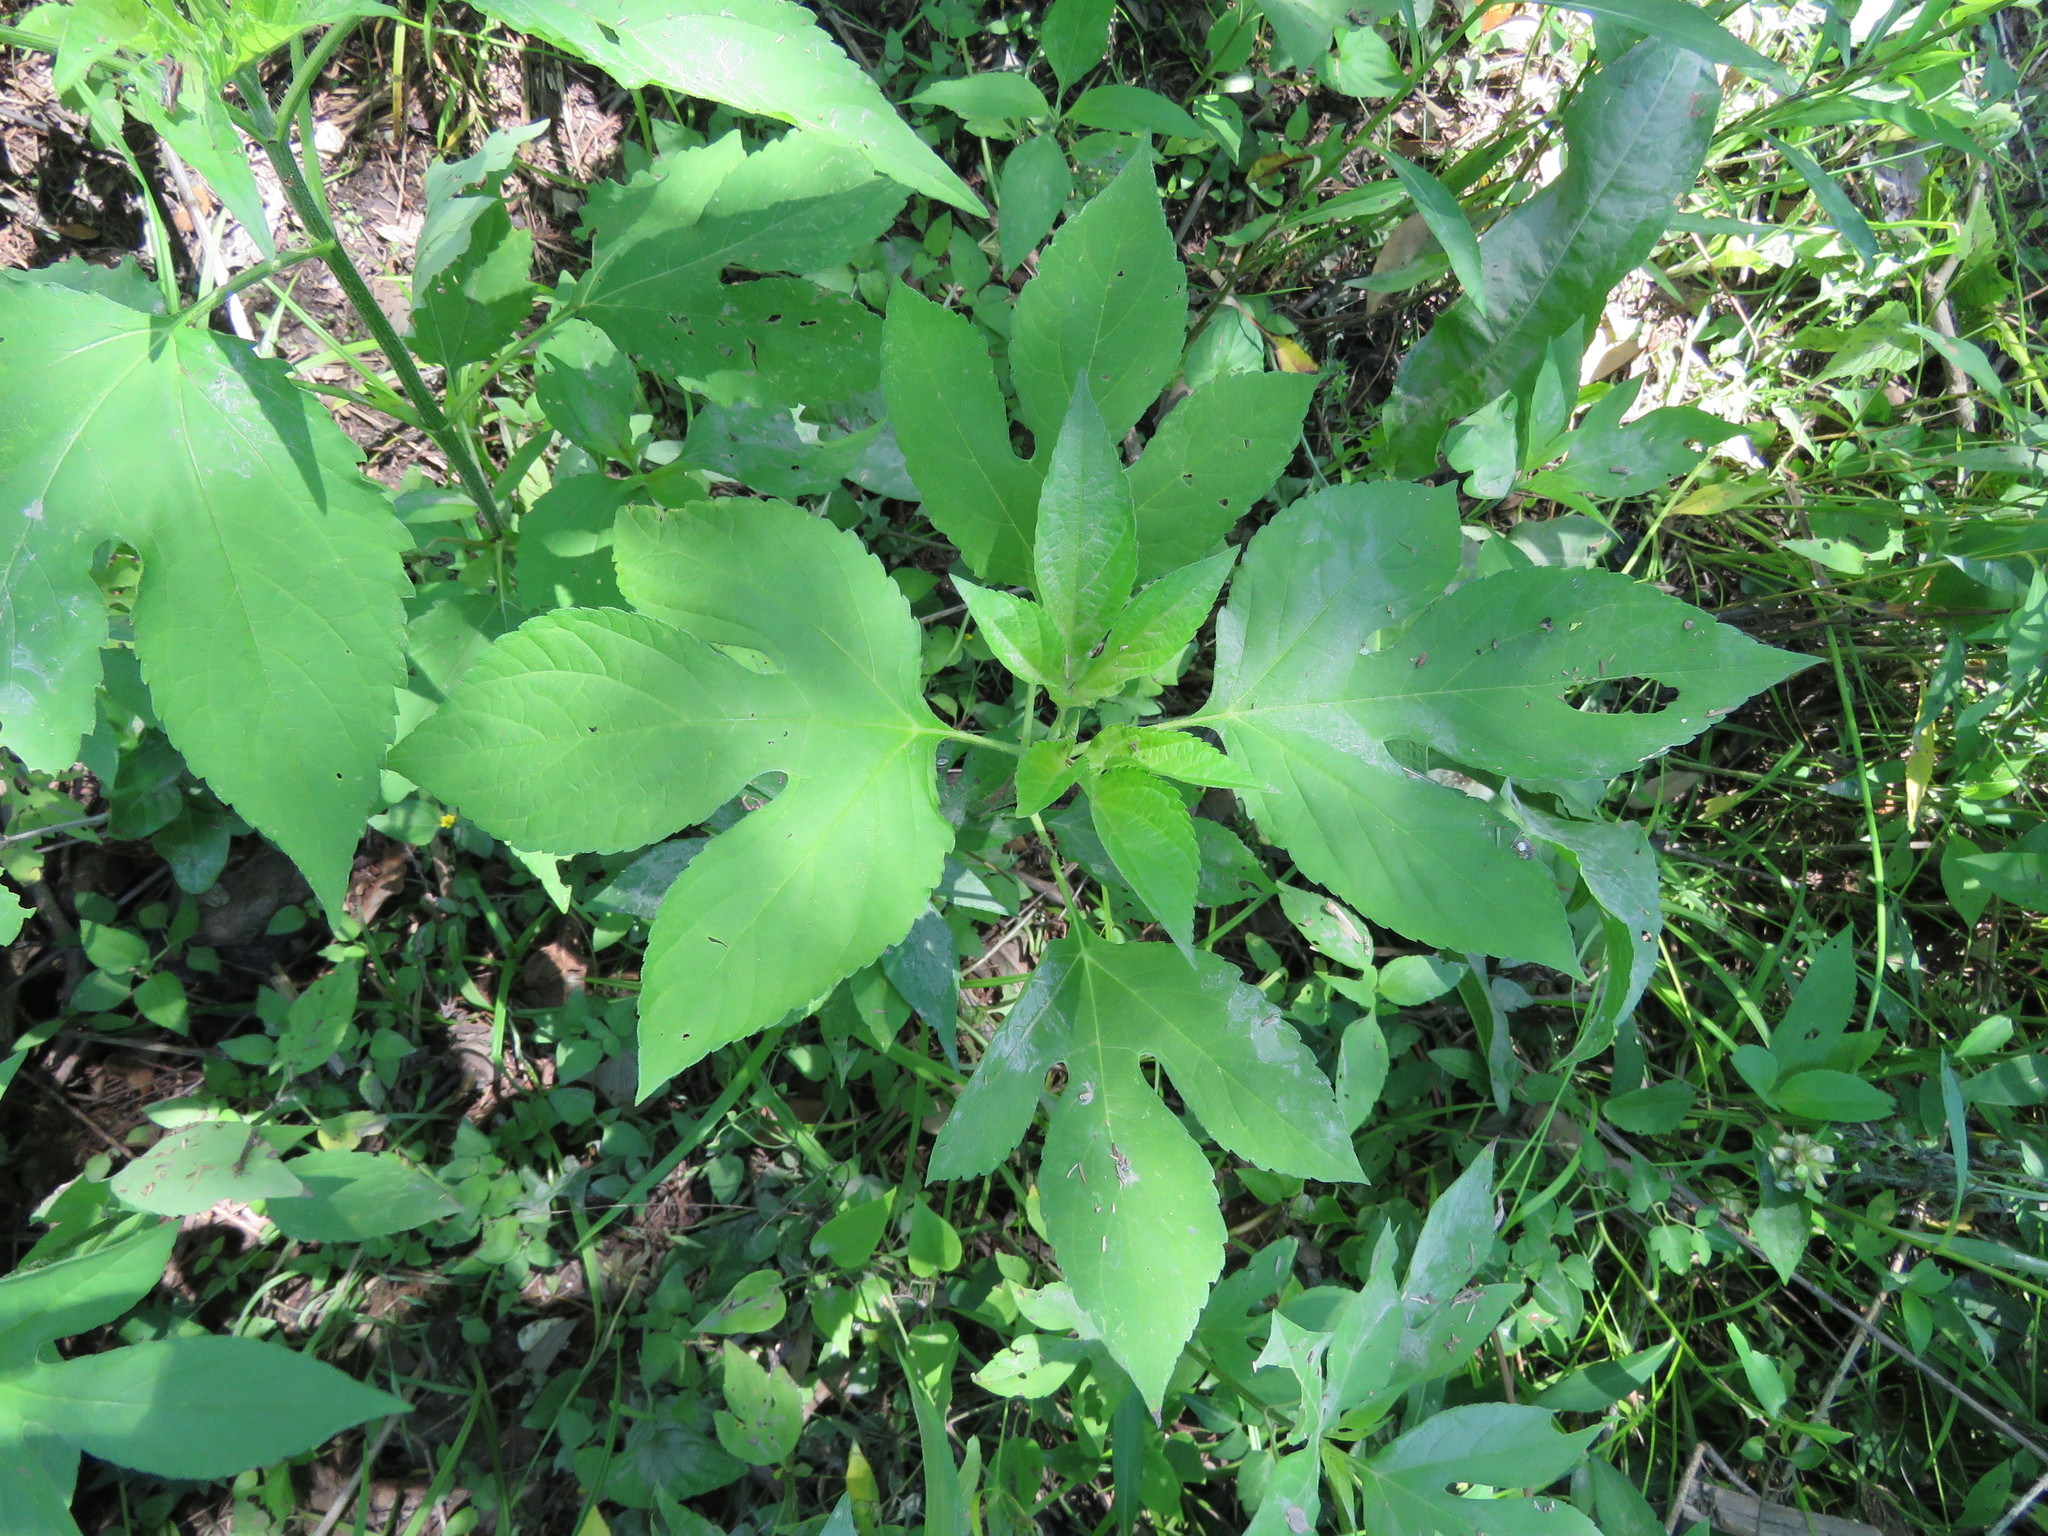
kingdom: Plantae
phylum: Tracheophyta
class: Magnoliopsida
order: Asterales
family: Asteraceae
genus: Ambrosia
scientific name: Ambrosia trifida
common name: Giant ragweed
